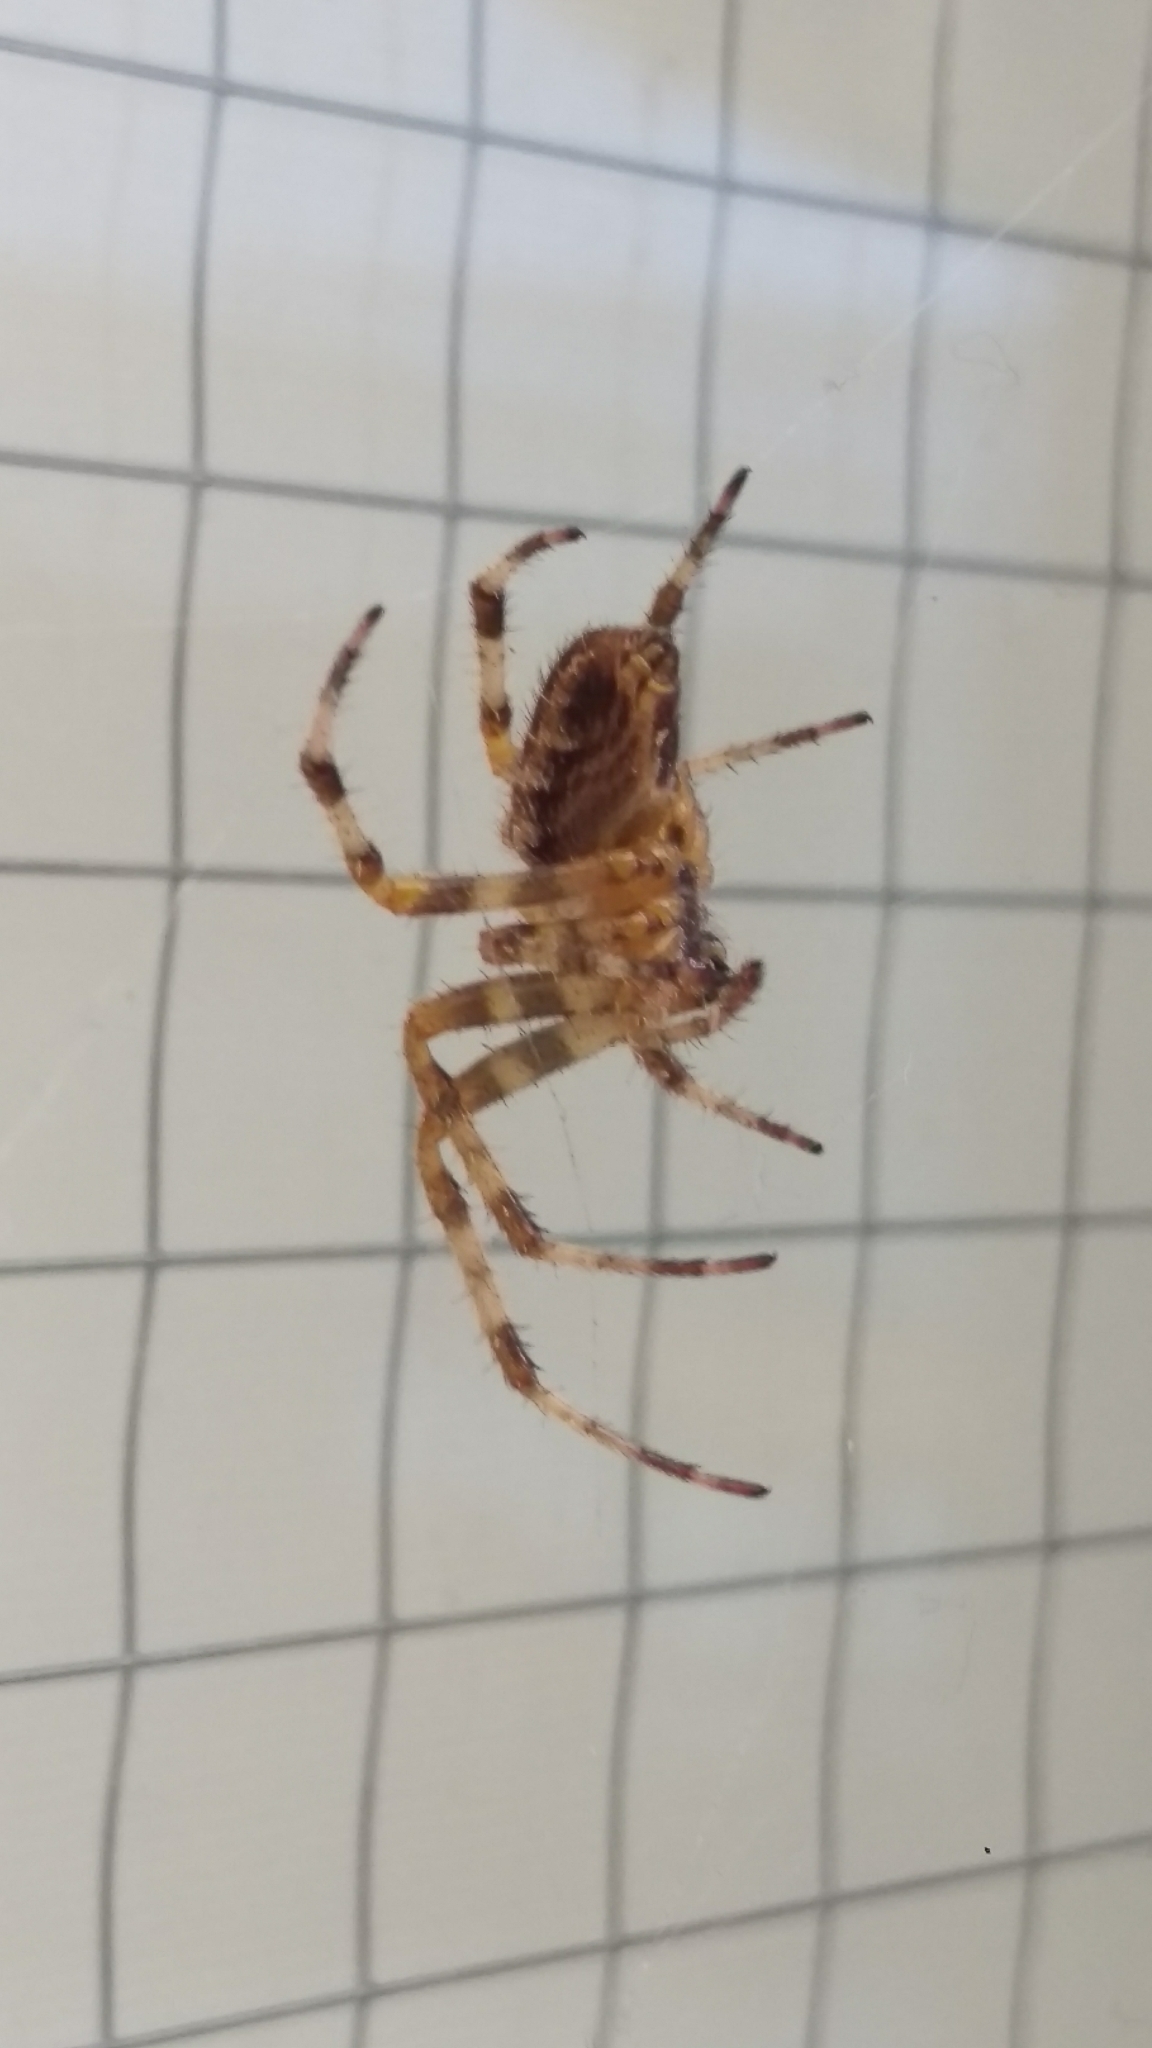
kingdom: Animalia
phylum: Arthropoda
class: Arachnida
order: Araneae
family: Araneidae
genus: Araneus
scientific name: Araneus diadematus
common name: Cross orbweaver
